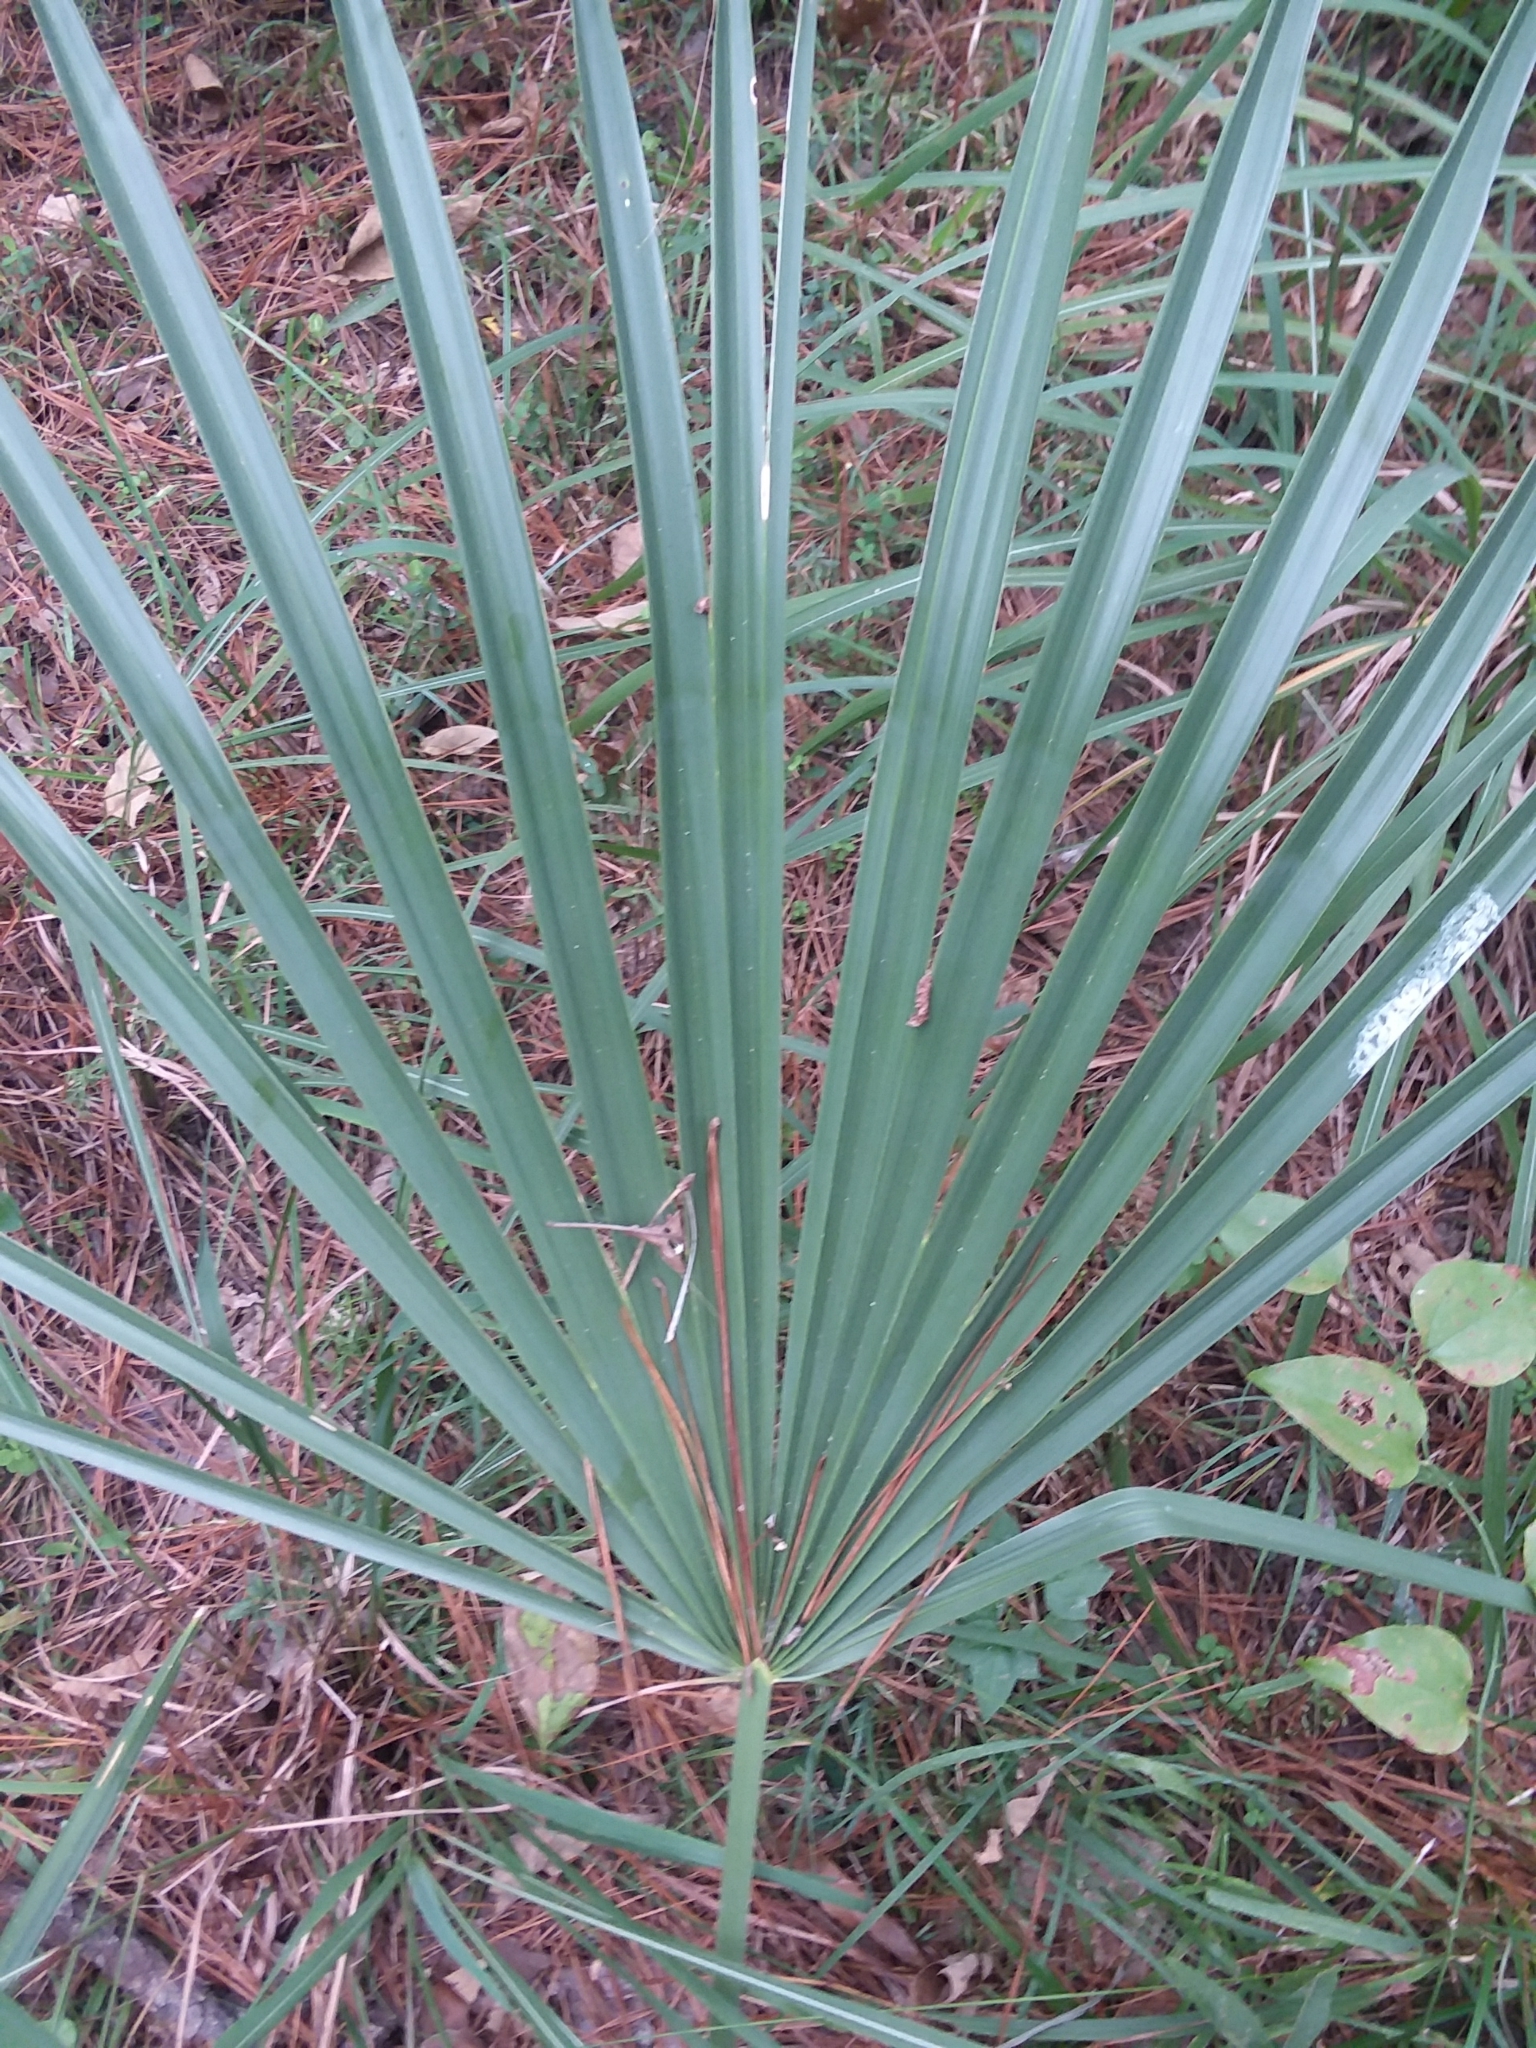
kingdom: Plantae
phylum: Tracheophyta
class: Liliopsida
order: Arecales
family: Arecaceae
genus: Sabal
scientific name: Sabal minor
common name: Dwarf palmetto
